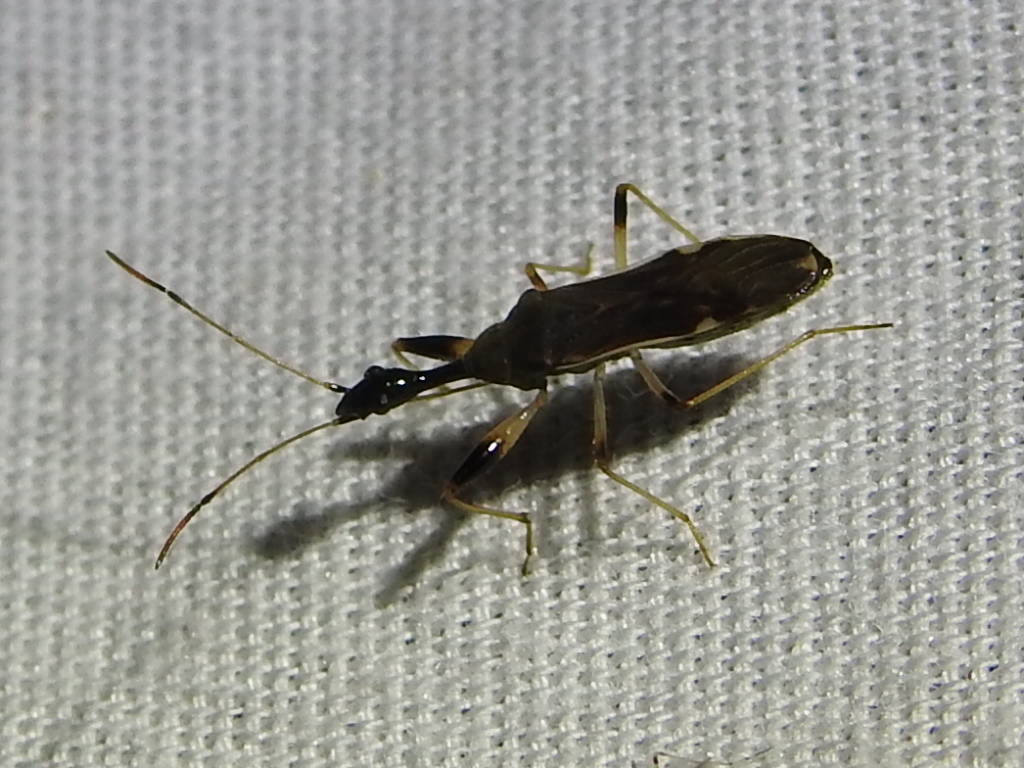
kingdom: Animalia
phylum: Arthropoda
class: Insecta
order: Hemiptera
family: Rhyparochromidae
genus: Myodocha
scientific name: Myodocha serripes
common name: Long-necked seed bug
